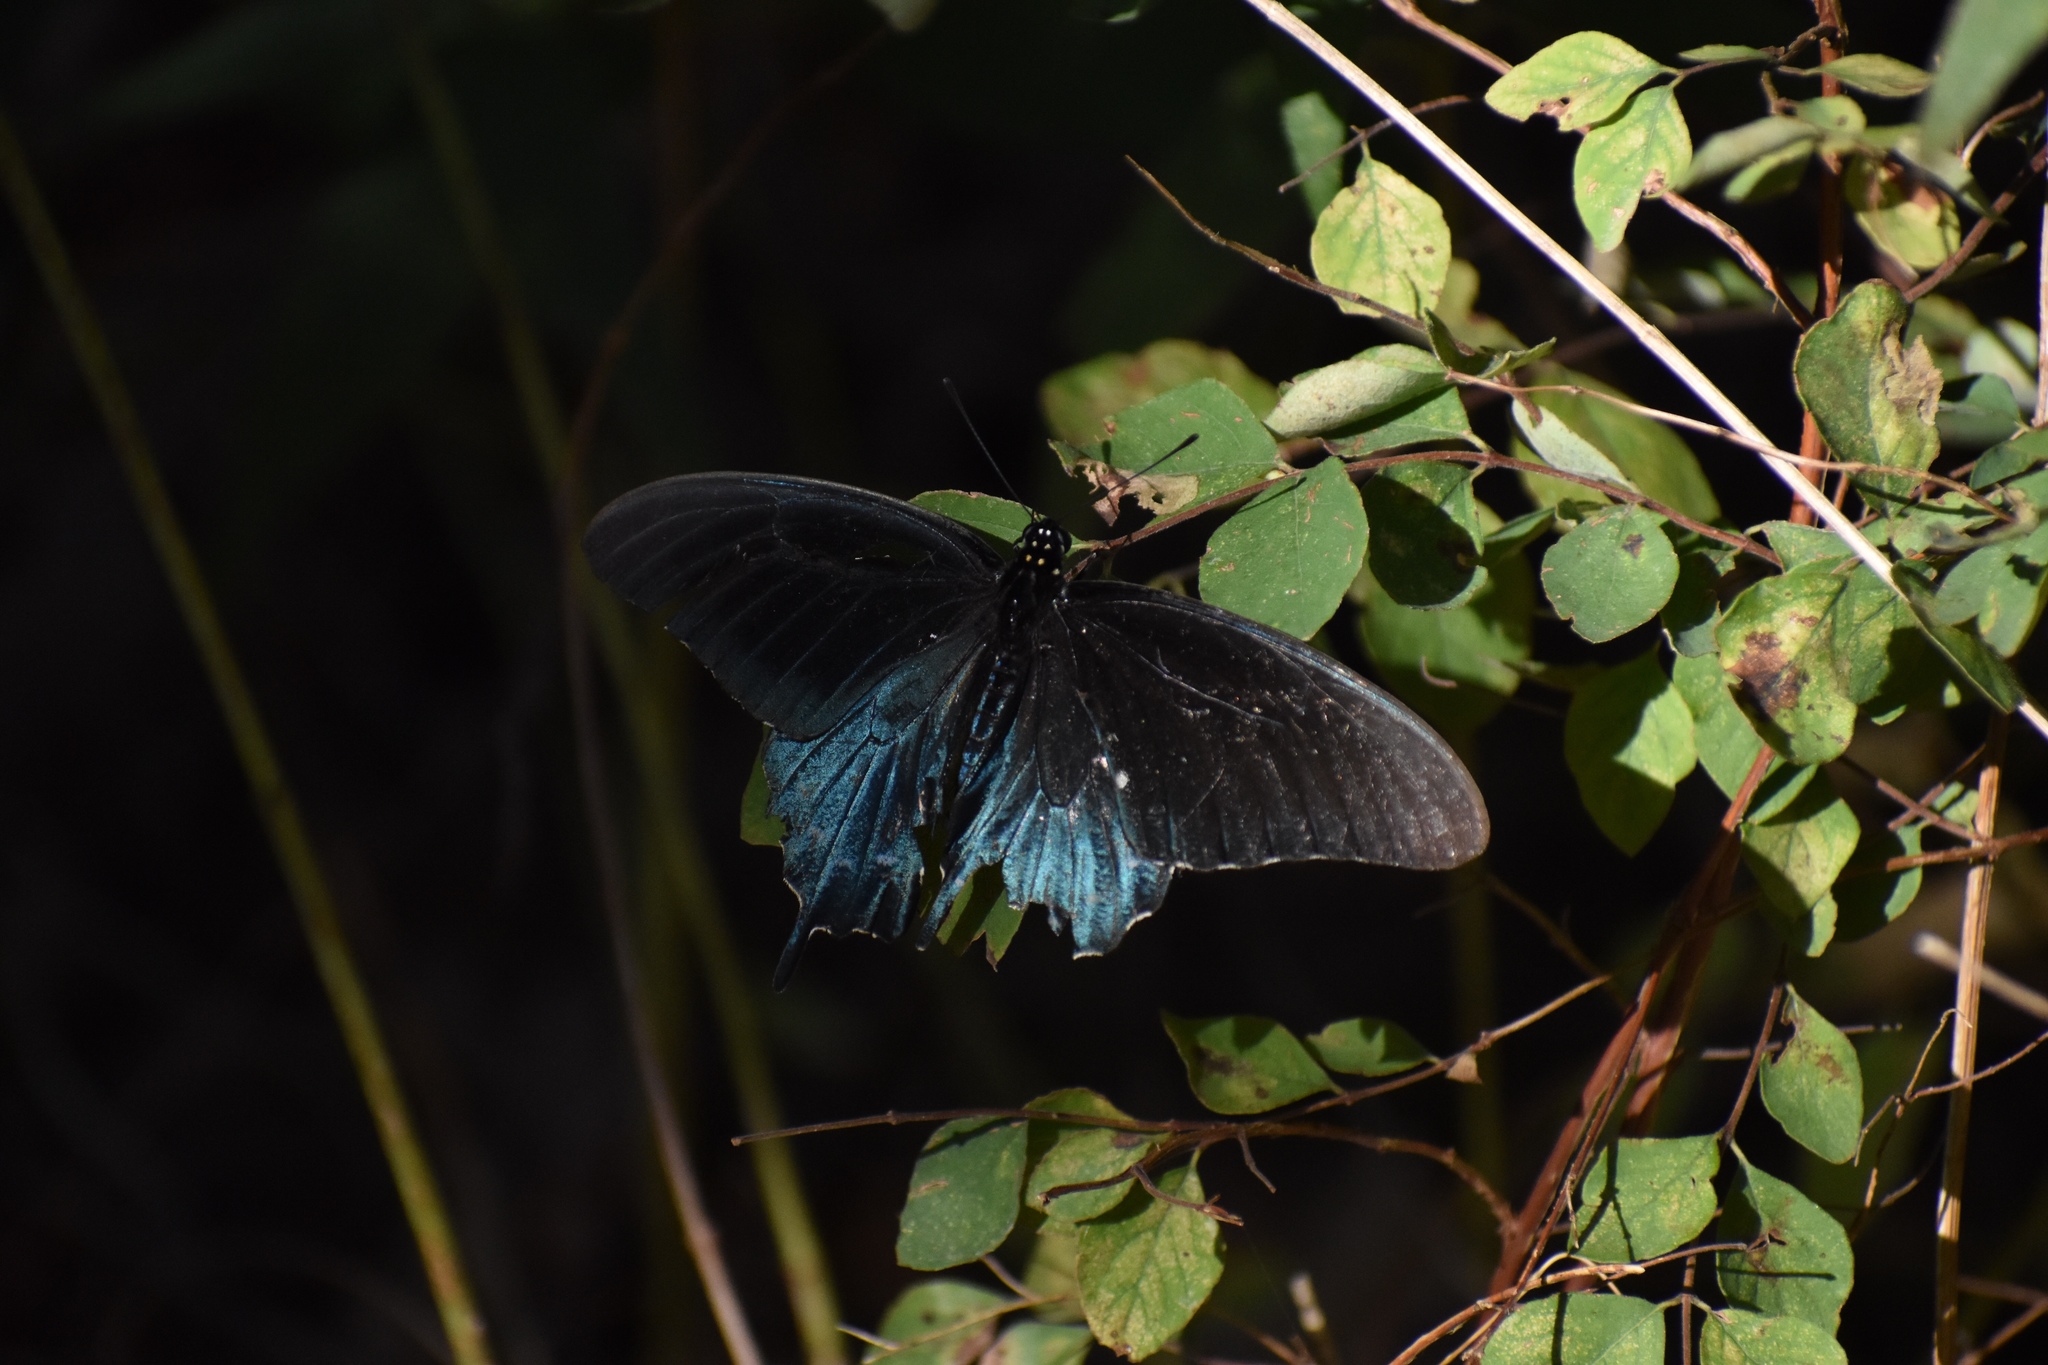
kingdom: Animalia
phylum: Arthropoda
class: Insecta
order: Lepidoptera
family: Papilionidae
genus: Battus
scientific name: Battus philenor
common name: Pipevine swallowtail
